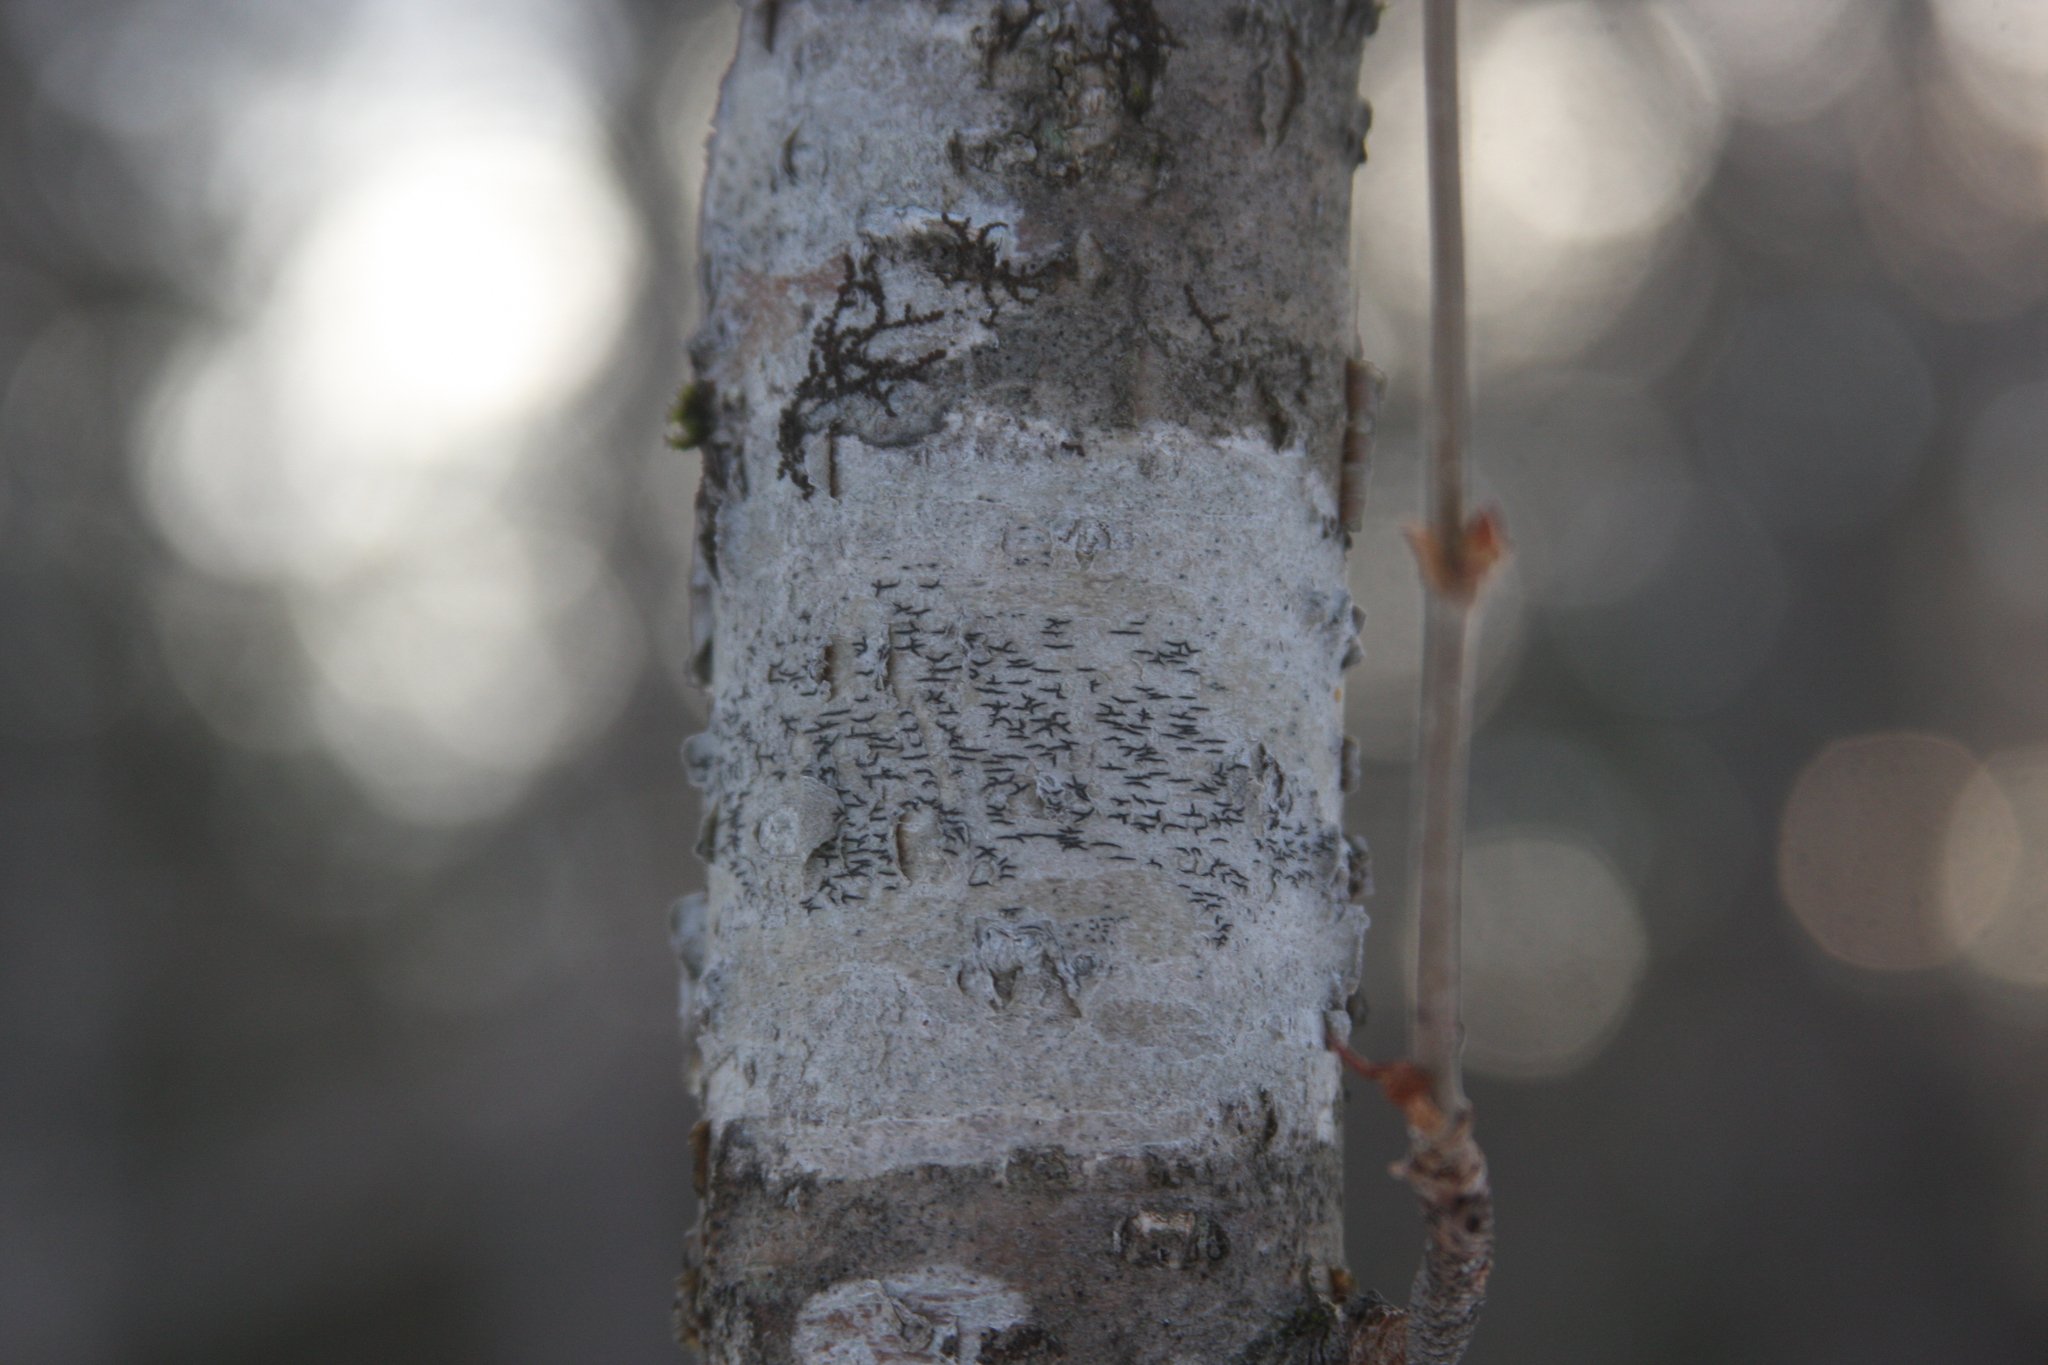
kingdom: Fungi
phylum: Ascomycota
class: Lecanoromycetes
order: Ostropales
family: Graphidaceae
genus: Graphis
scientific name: Graphis scripta
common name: Script lichen
